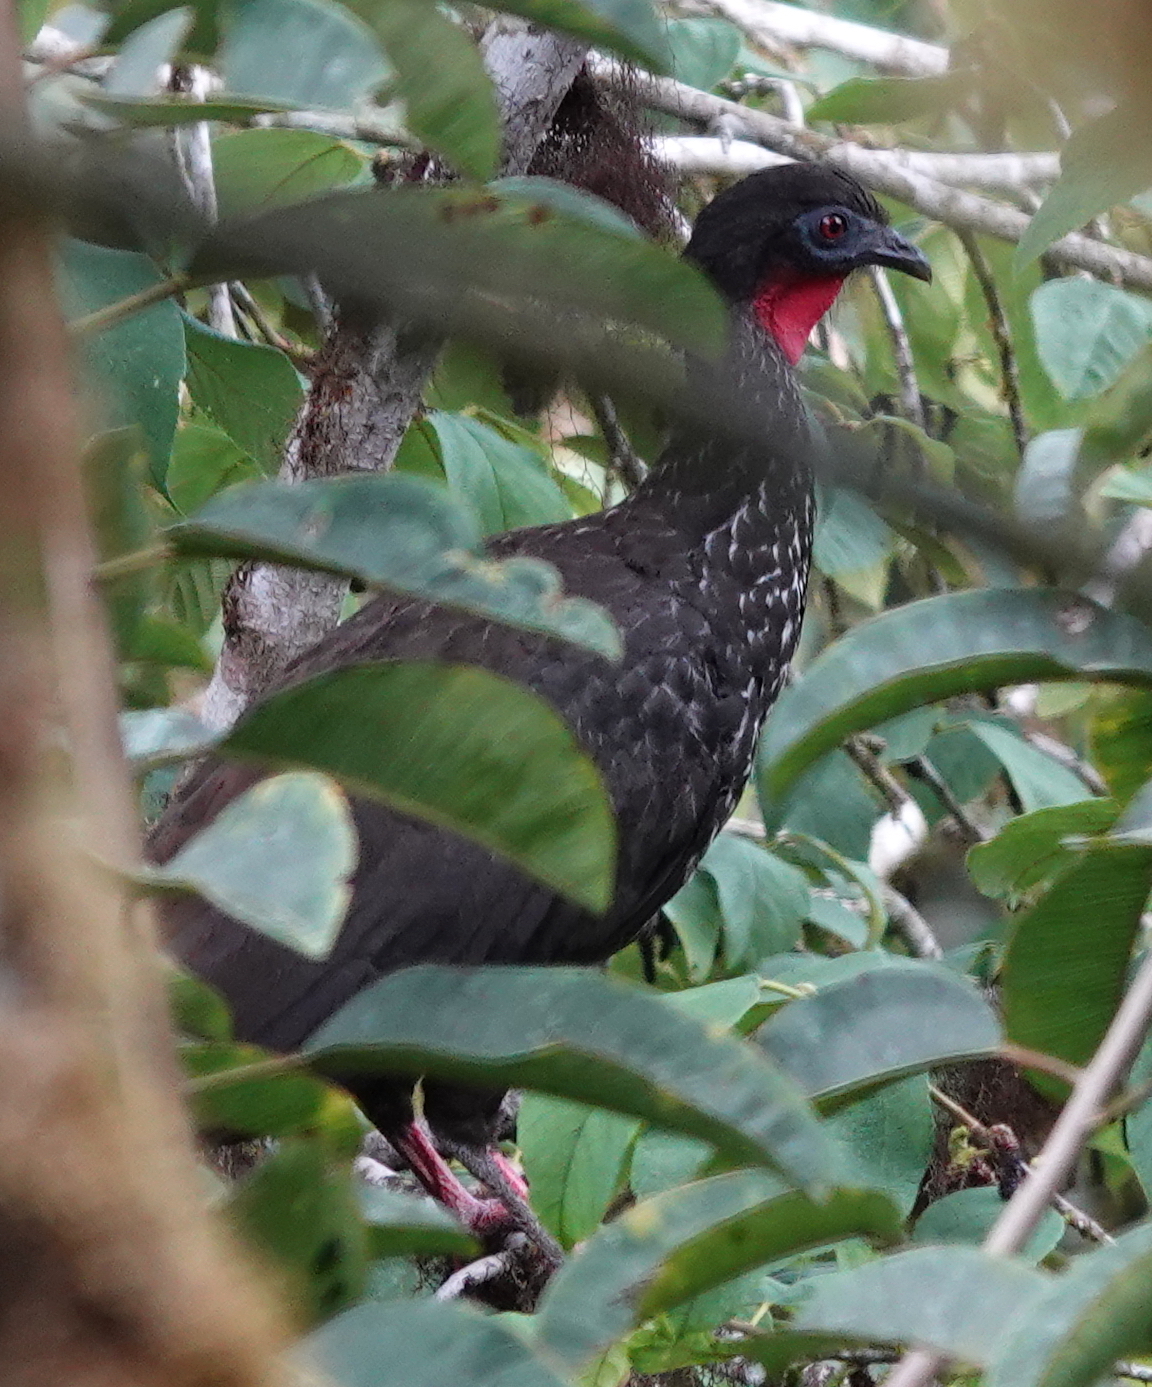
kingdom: Animalia
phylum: Chordata
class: Aves
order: Galliformes
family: Cracidae
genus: Penelope
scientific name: Penelope purpurascens
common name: Crested guan
